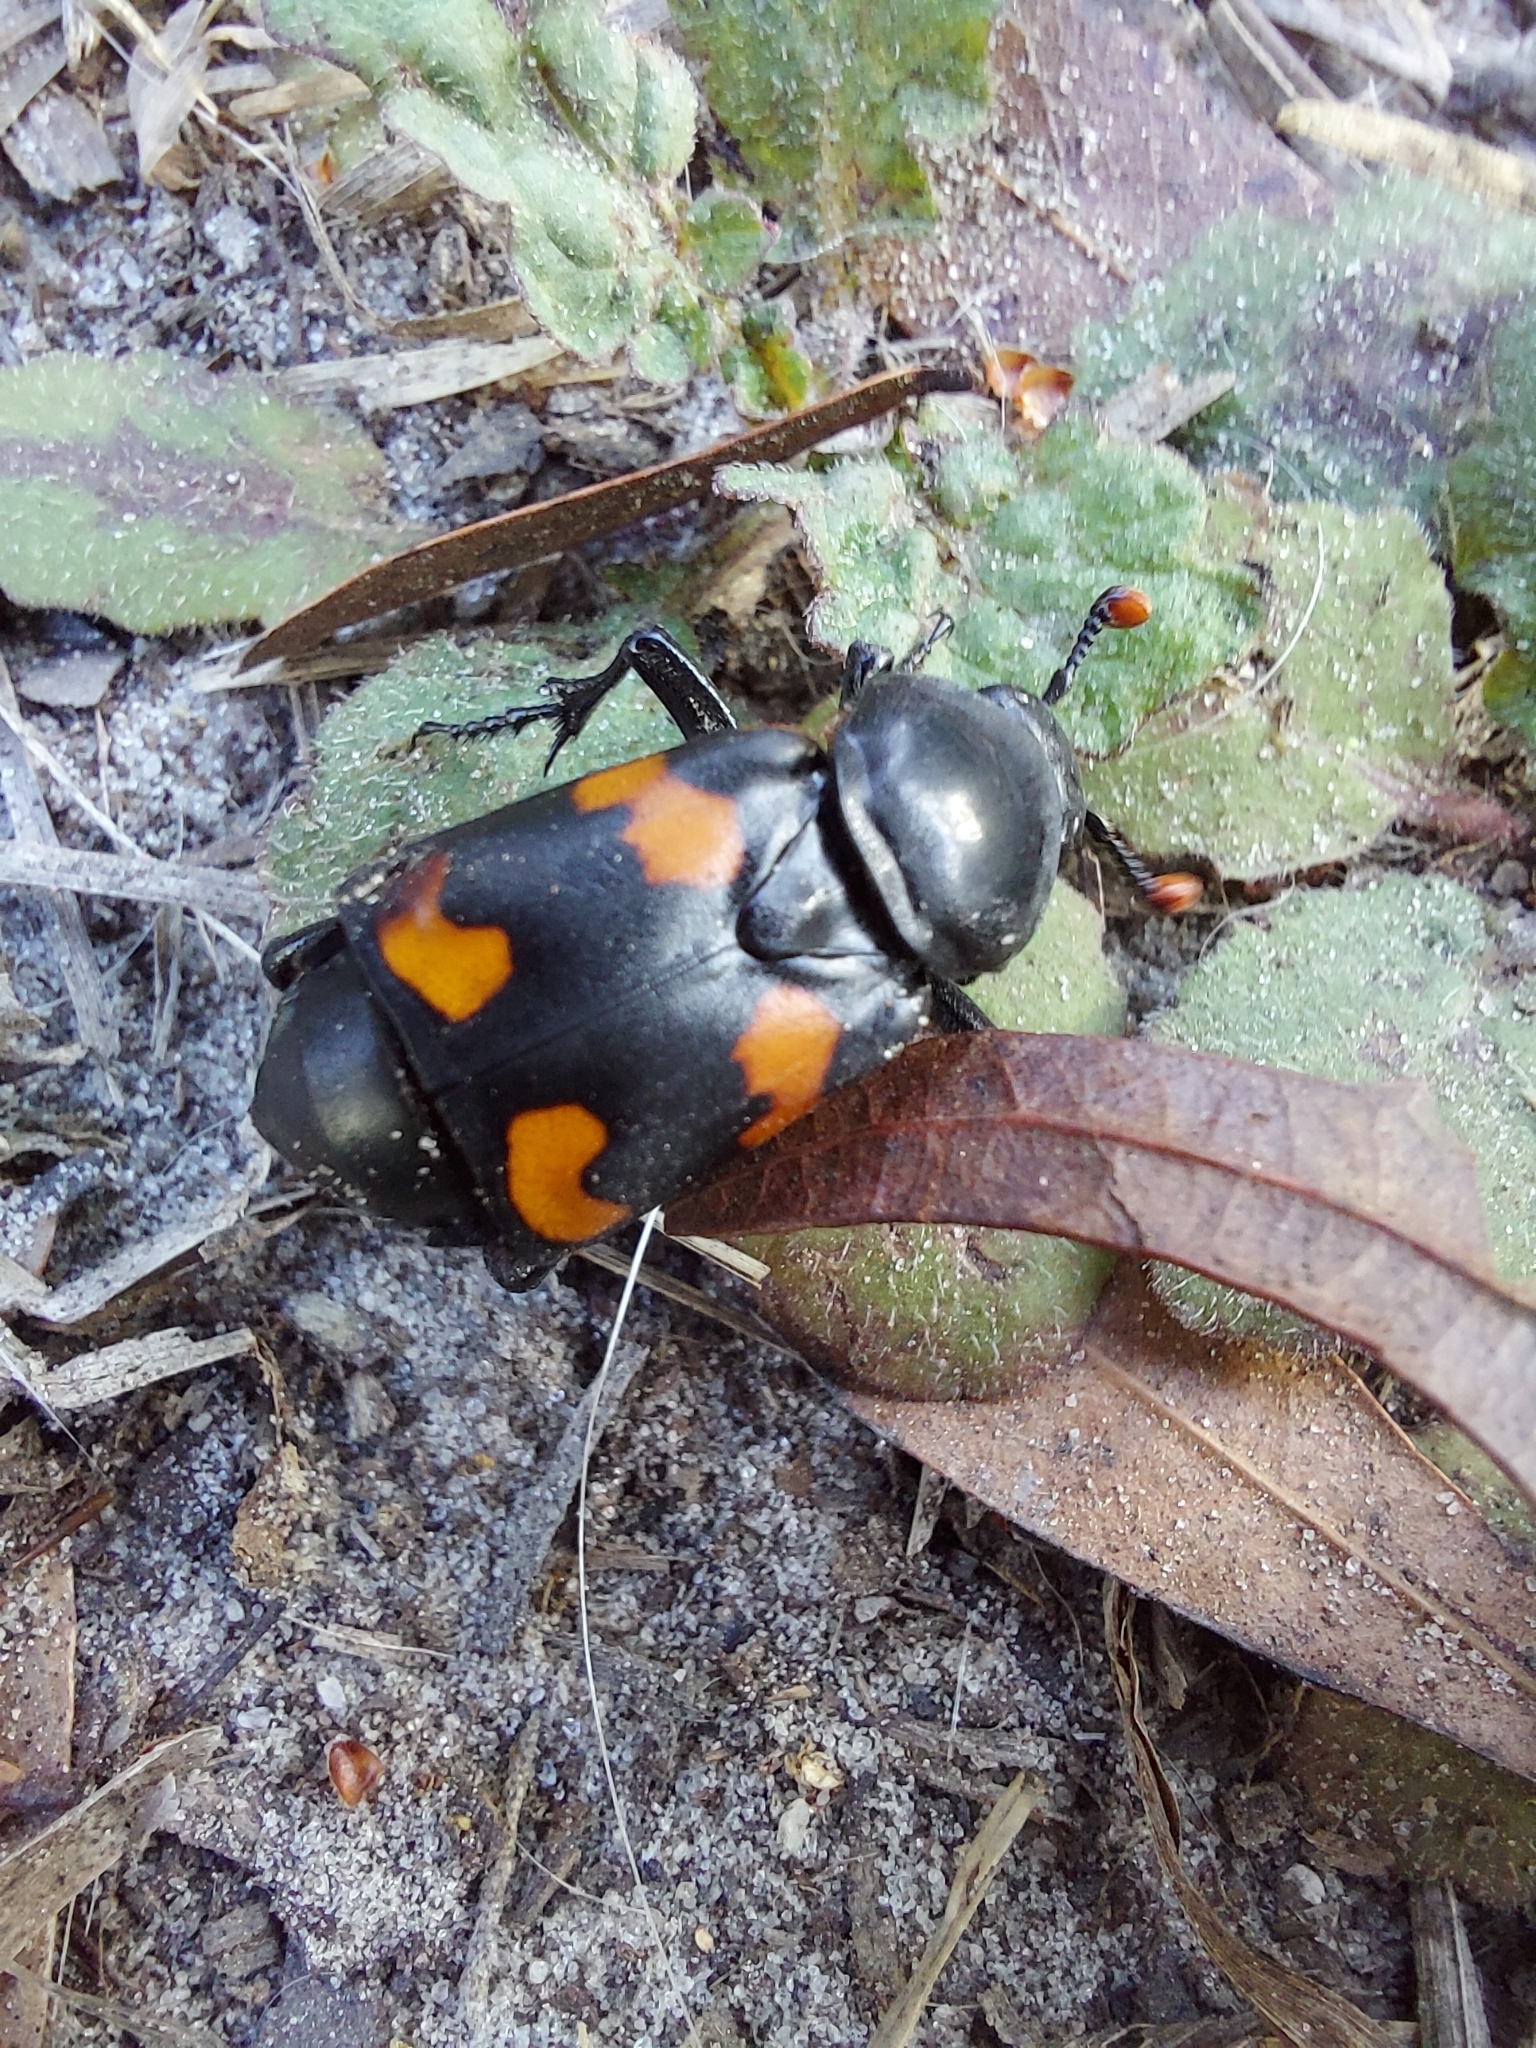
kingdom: Animalia
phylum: Arthropoda
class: Insecta
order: Coleoptera
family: Staphylinidae
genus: Nicrophorus
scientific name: Nicrophorus carolinus
